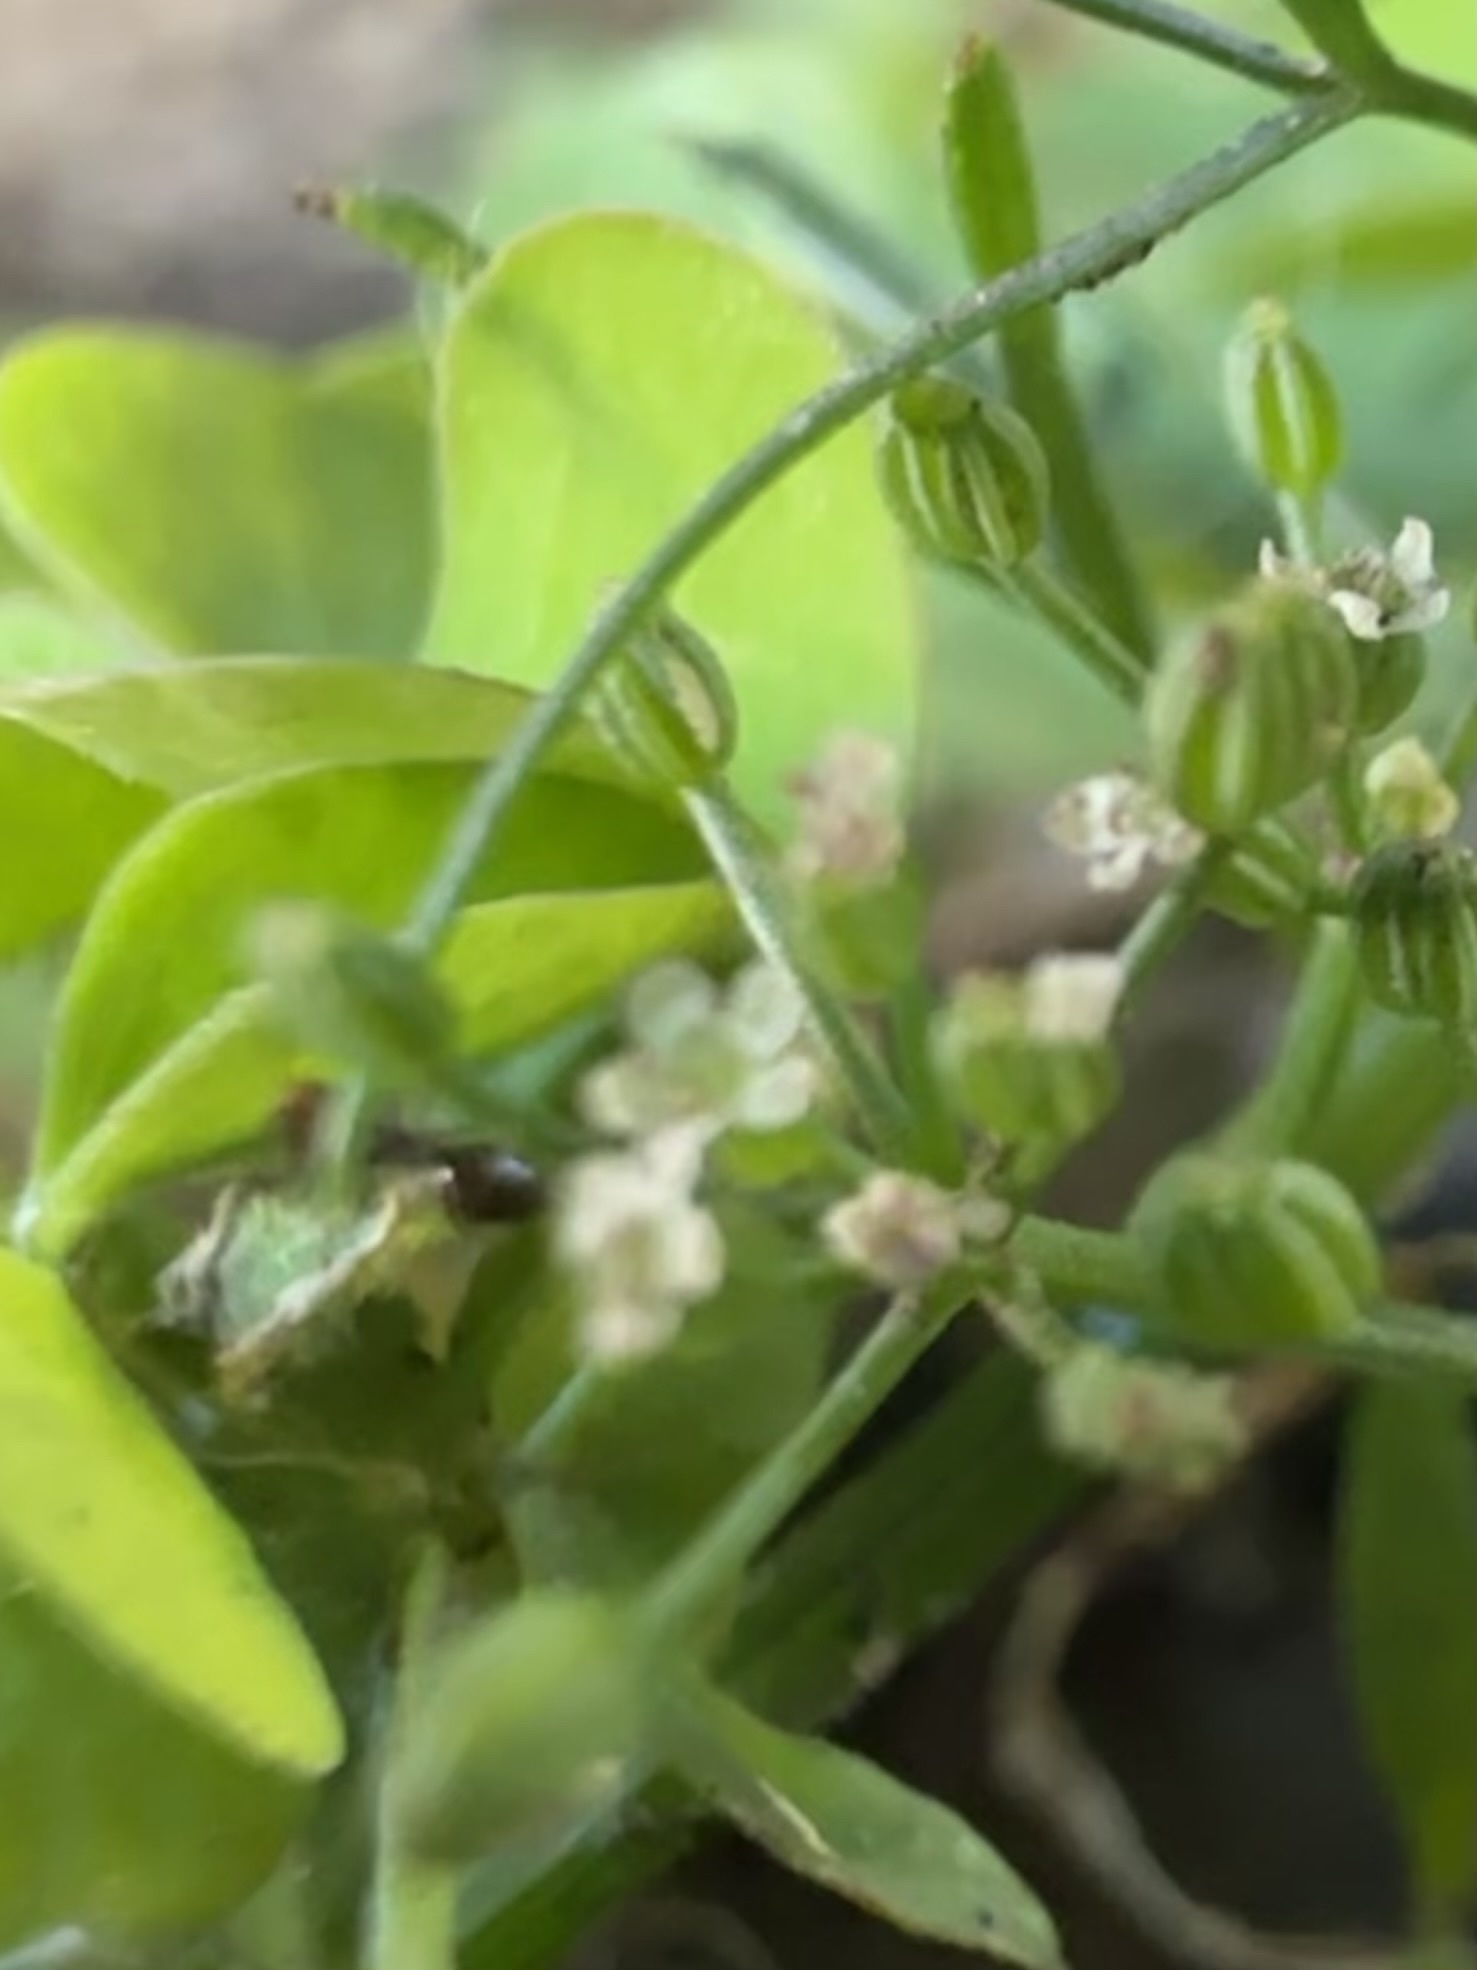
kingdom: Animalia
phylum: Arthropoda
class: Insecta
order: Hymenoptera
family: Formicidae
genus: Brachymyrmex
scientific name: Brachymyrmex patagonicus
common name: Dark rover ant
